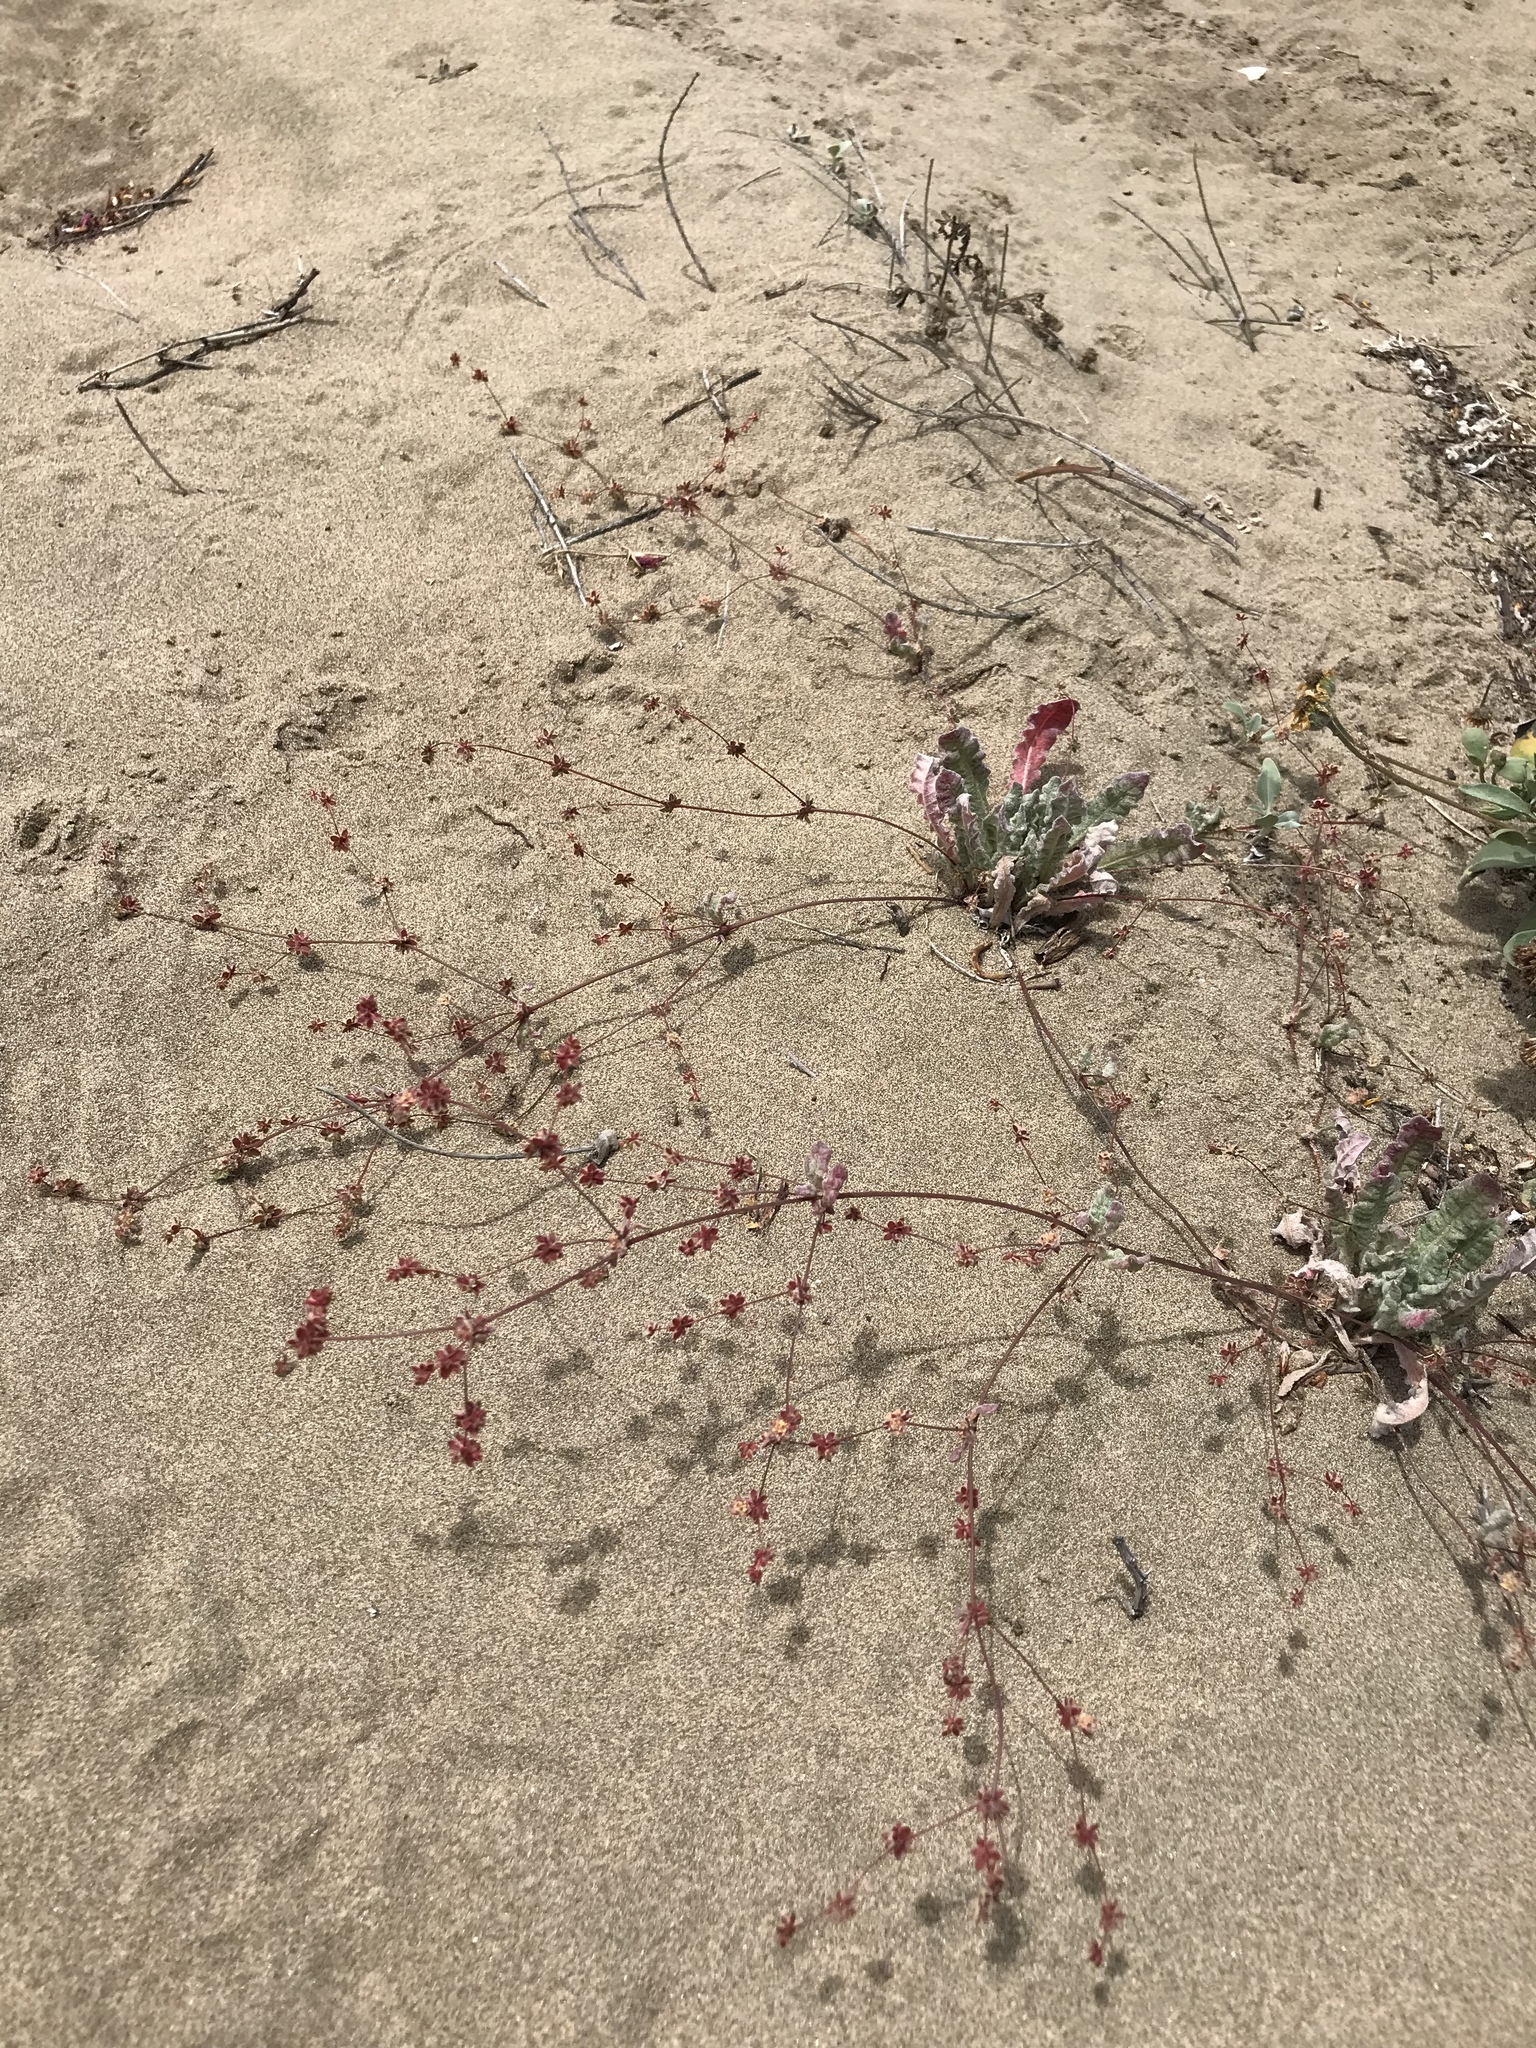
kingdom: Plantae
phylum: Tracheophyta
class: Magnoliopsida
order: Caryophyllales
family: Polygonaceae
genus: Nemacaulis
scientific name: Nemacaulis denudata
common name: Woolly-heads
